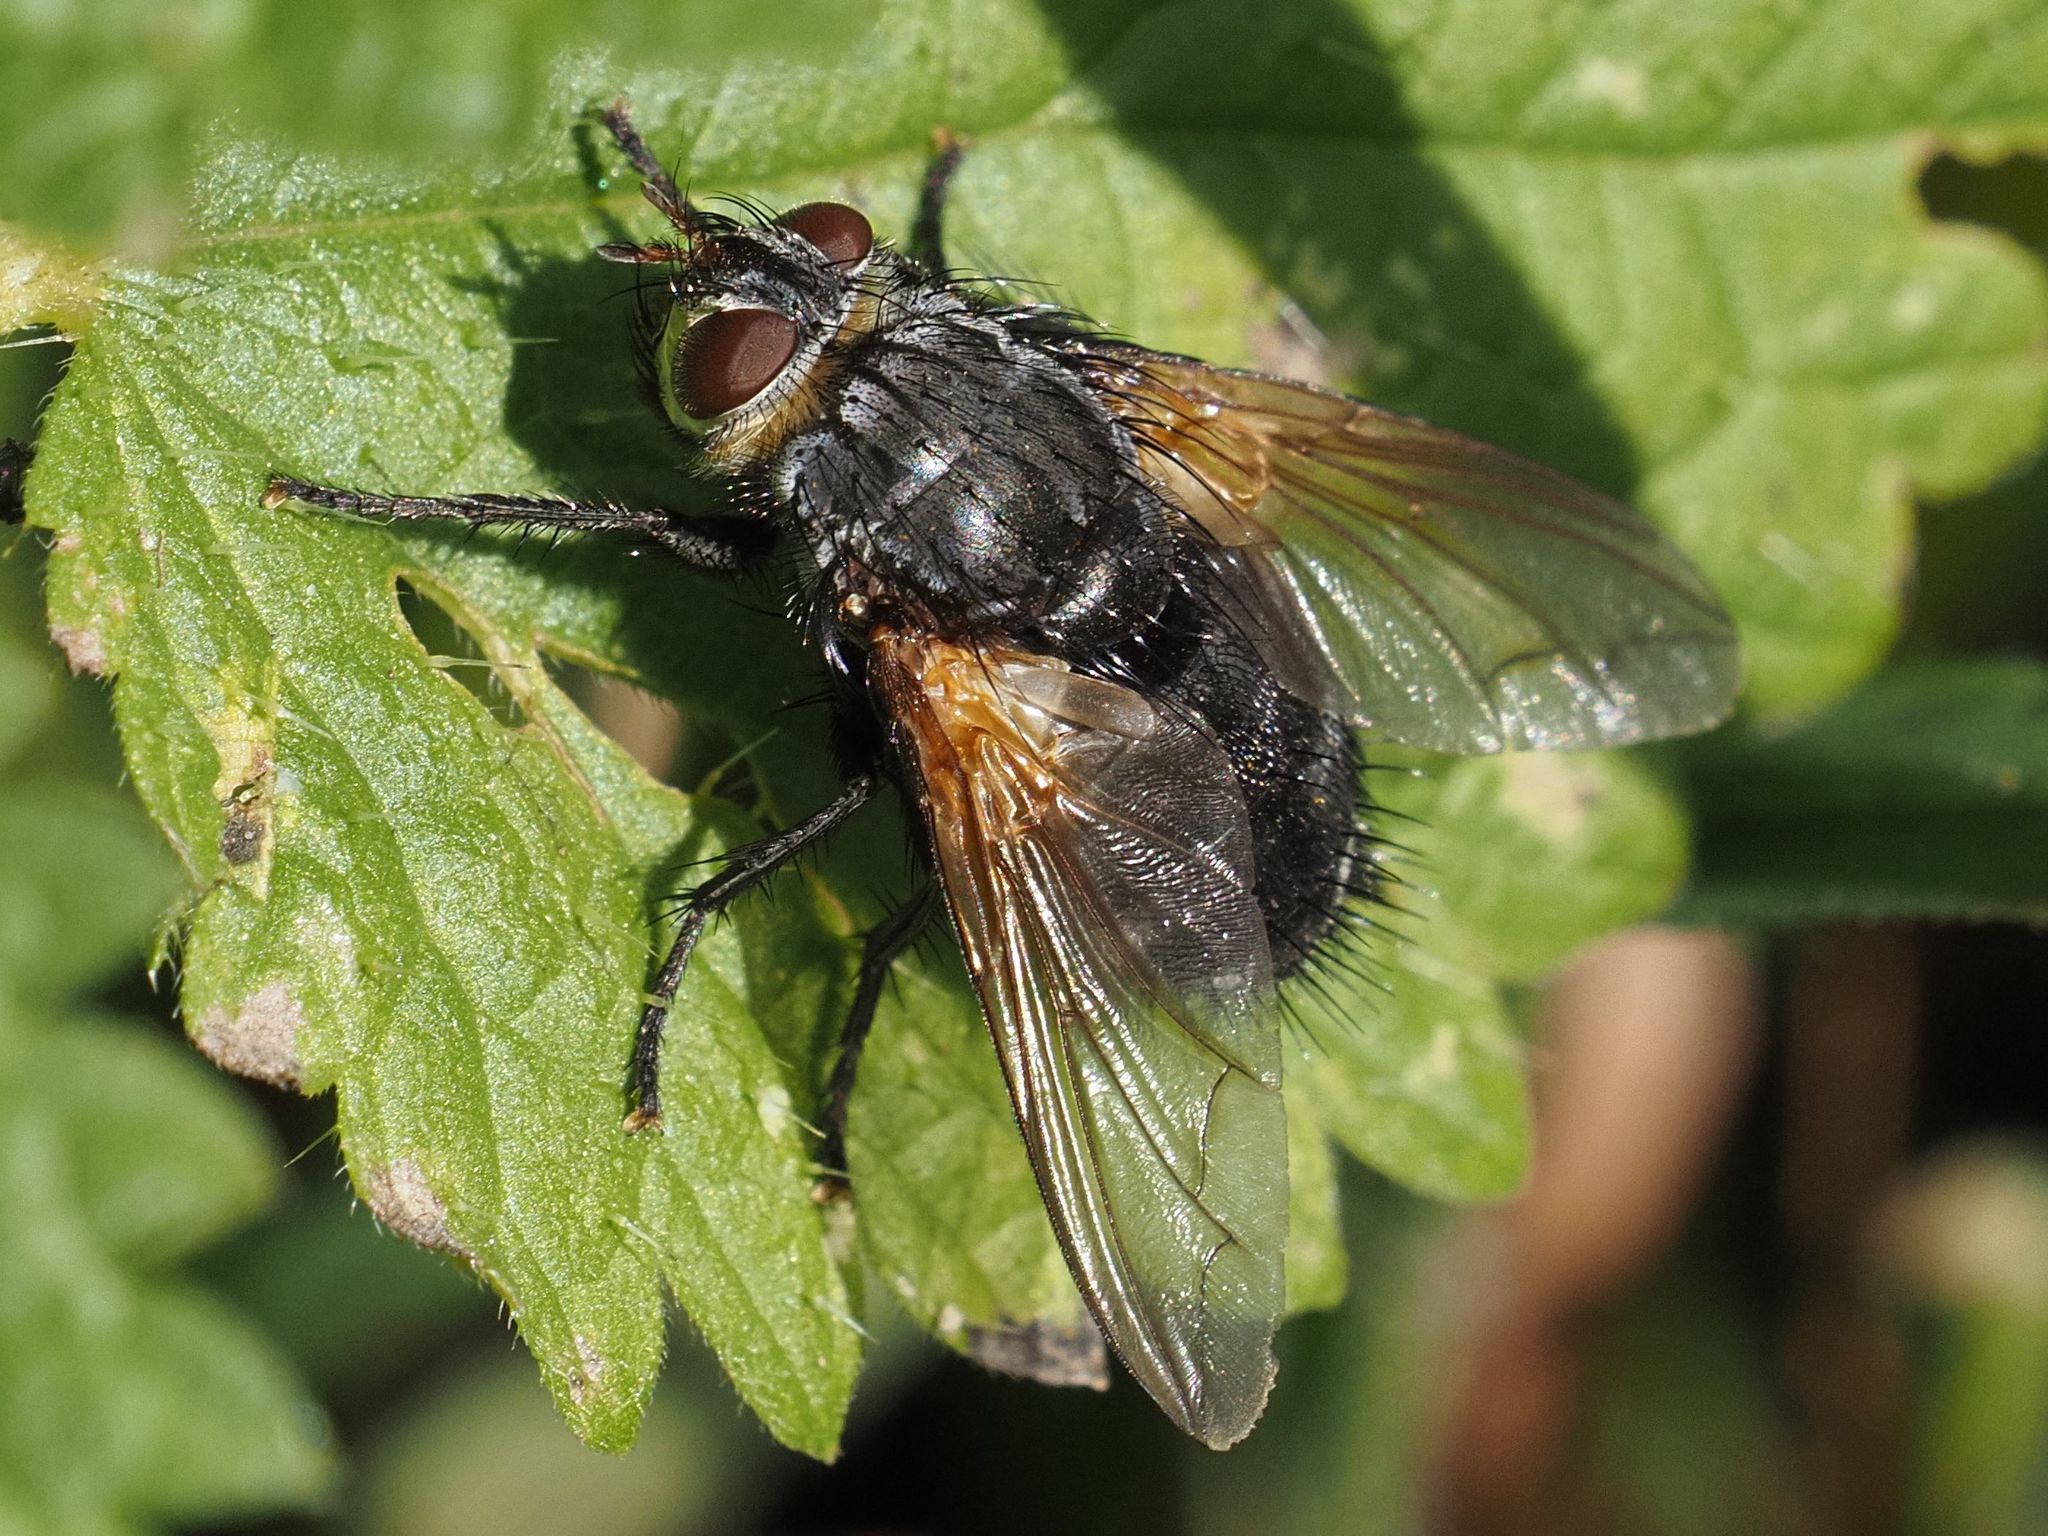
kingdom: Animalia
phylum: Arthropoda
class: Insecta
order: Diptera
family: Tachinidae
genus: Nemoraea
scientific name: Nemoraea pellucida
